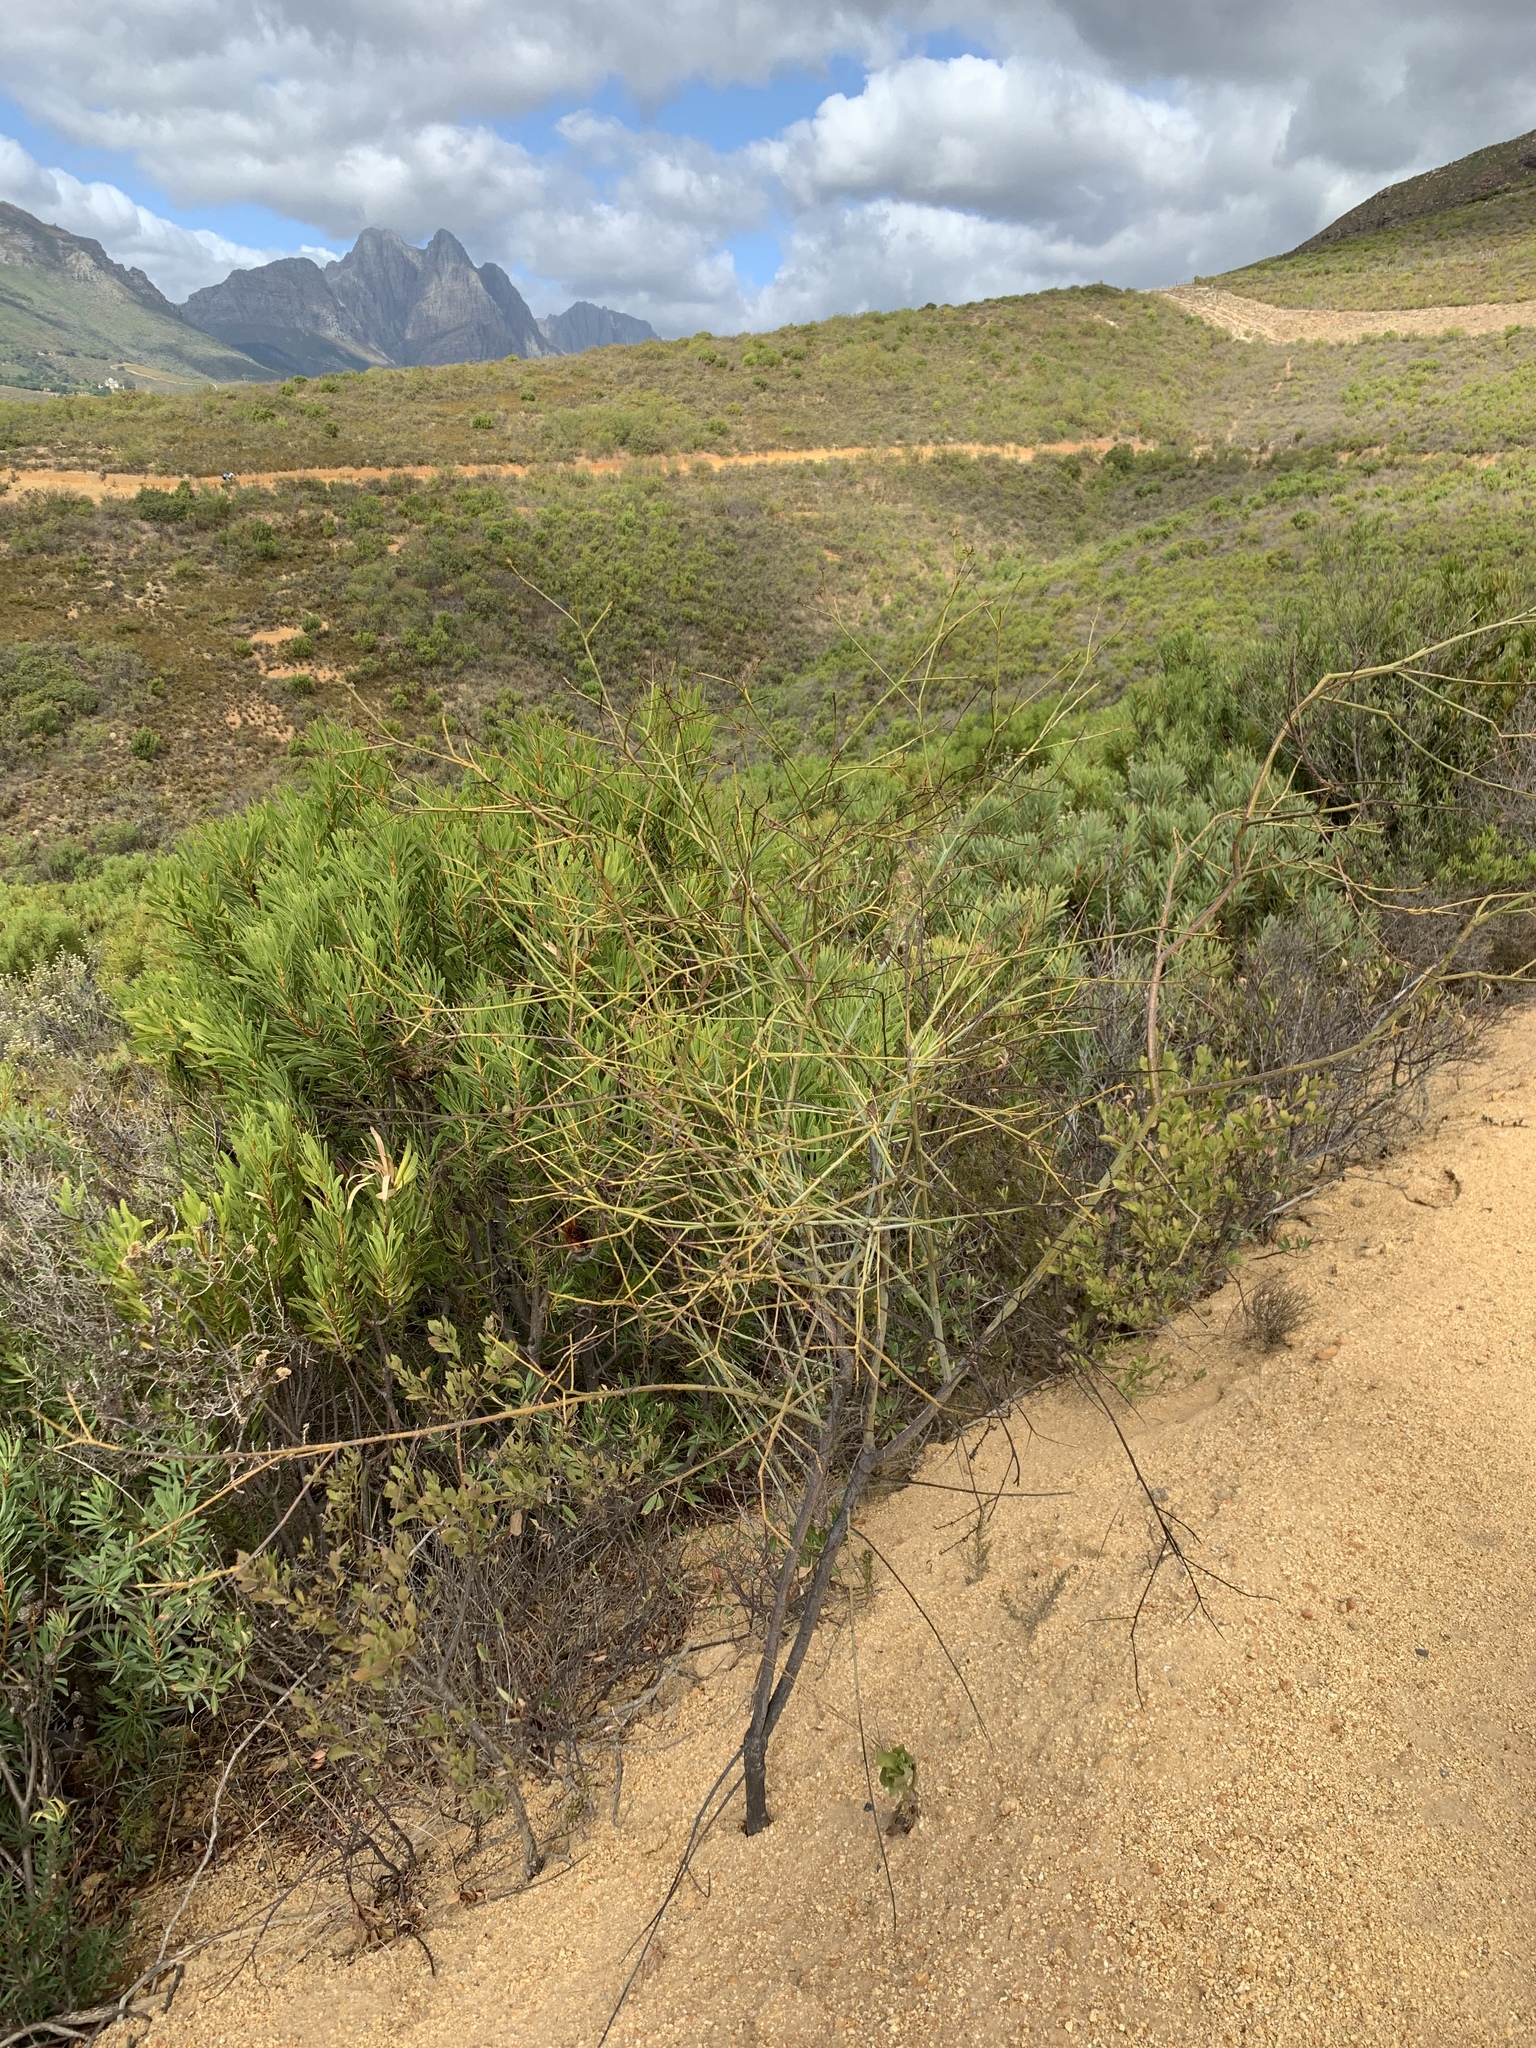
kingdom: Plantae
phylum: Tracheophyta
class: Magnoliopsida
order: Santalales
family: Thesiaceae
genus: Thesium
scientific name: Thesium strictum
